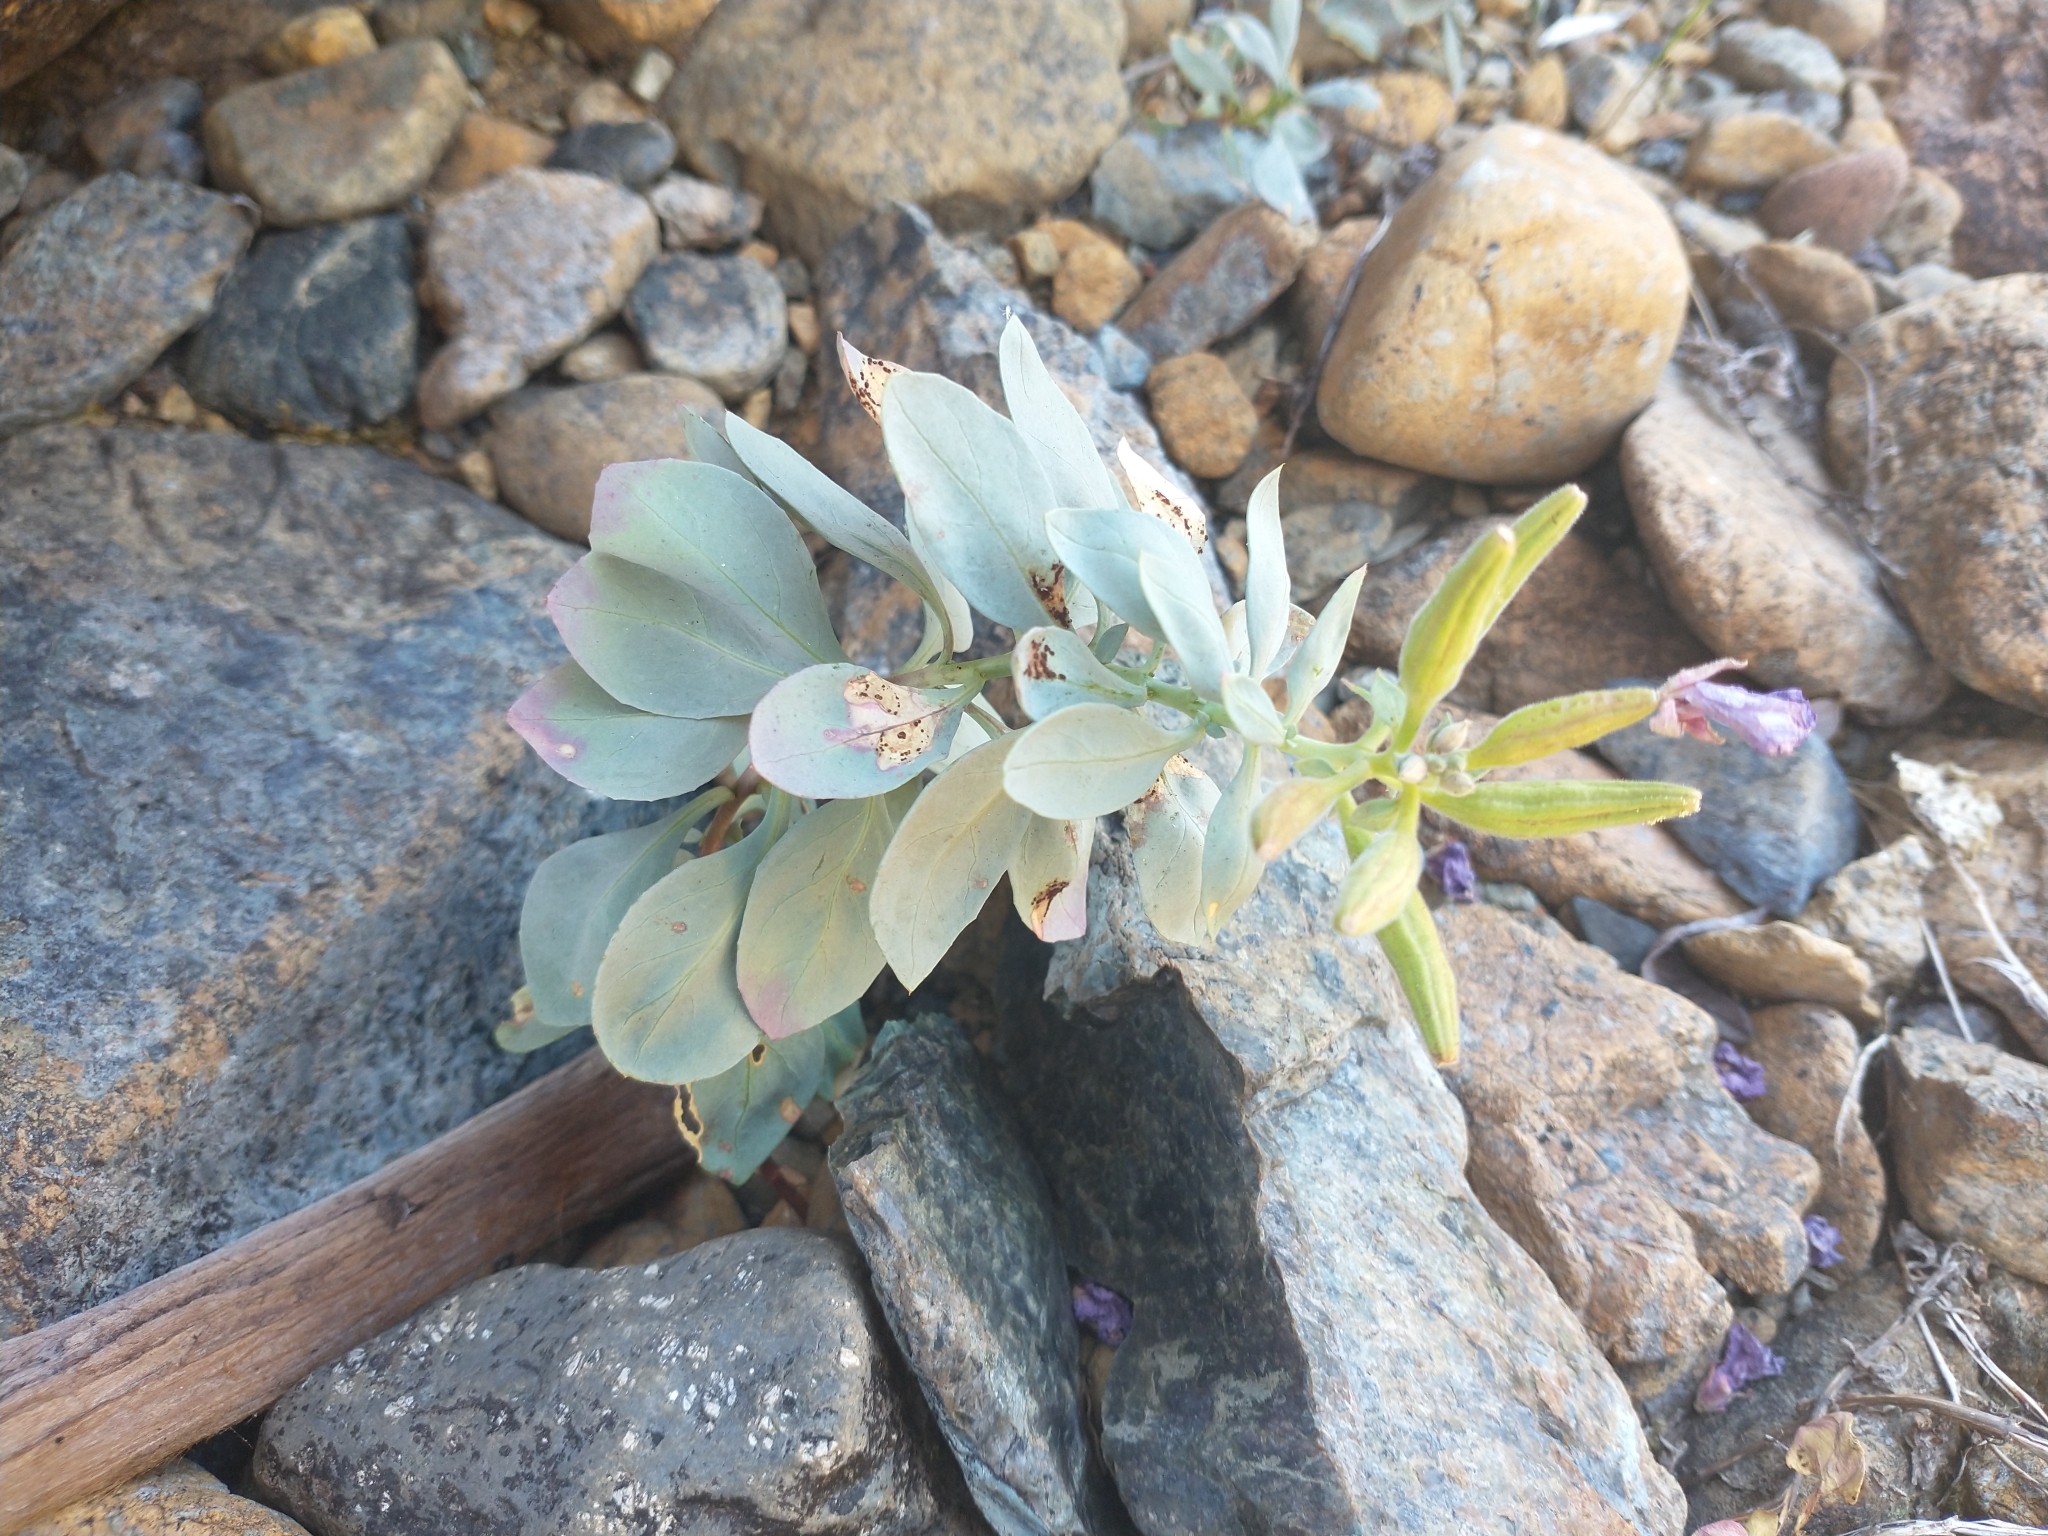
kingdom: Plantae
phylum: Tracheophyta
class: Magnoliopsida
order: Myrtales
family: Onagraceae
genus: Epilobium
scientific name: Epilobium rigidum
